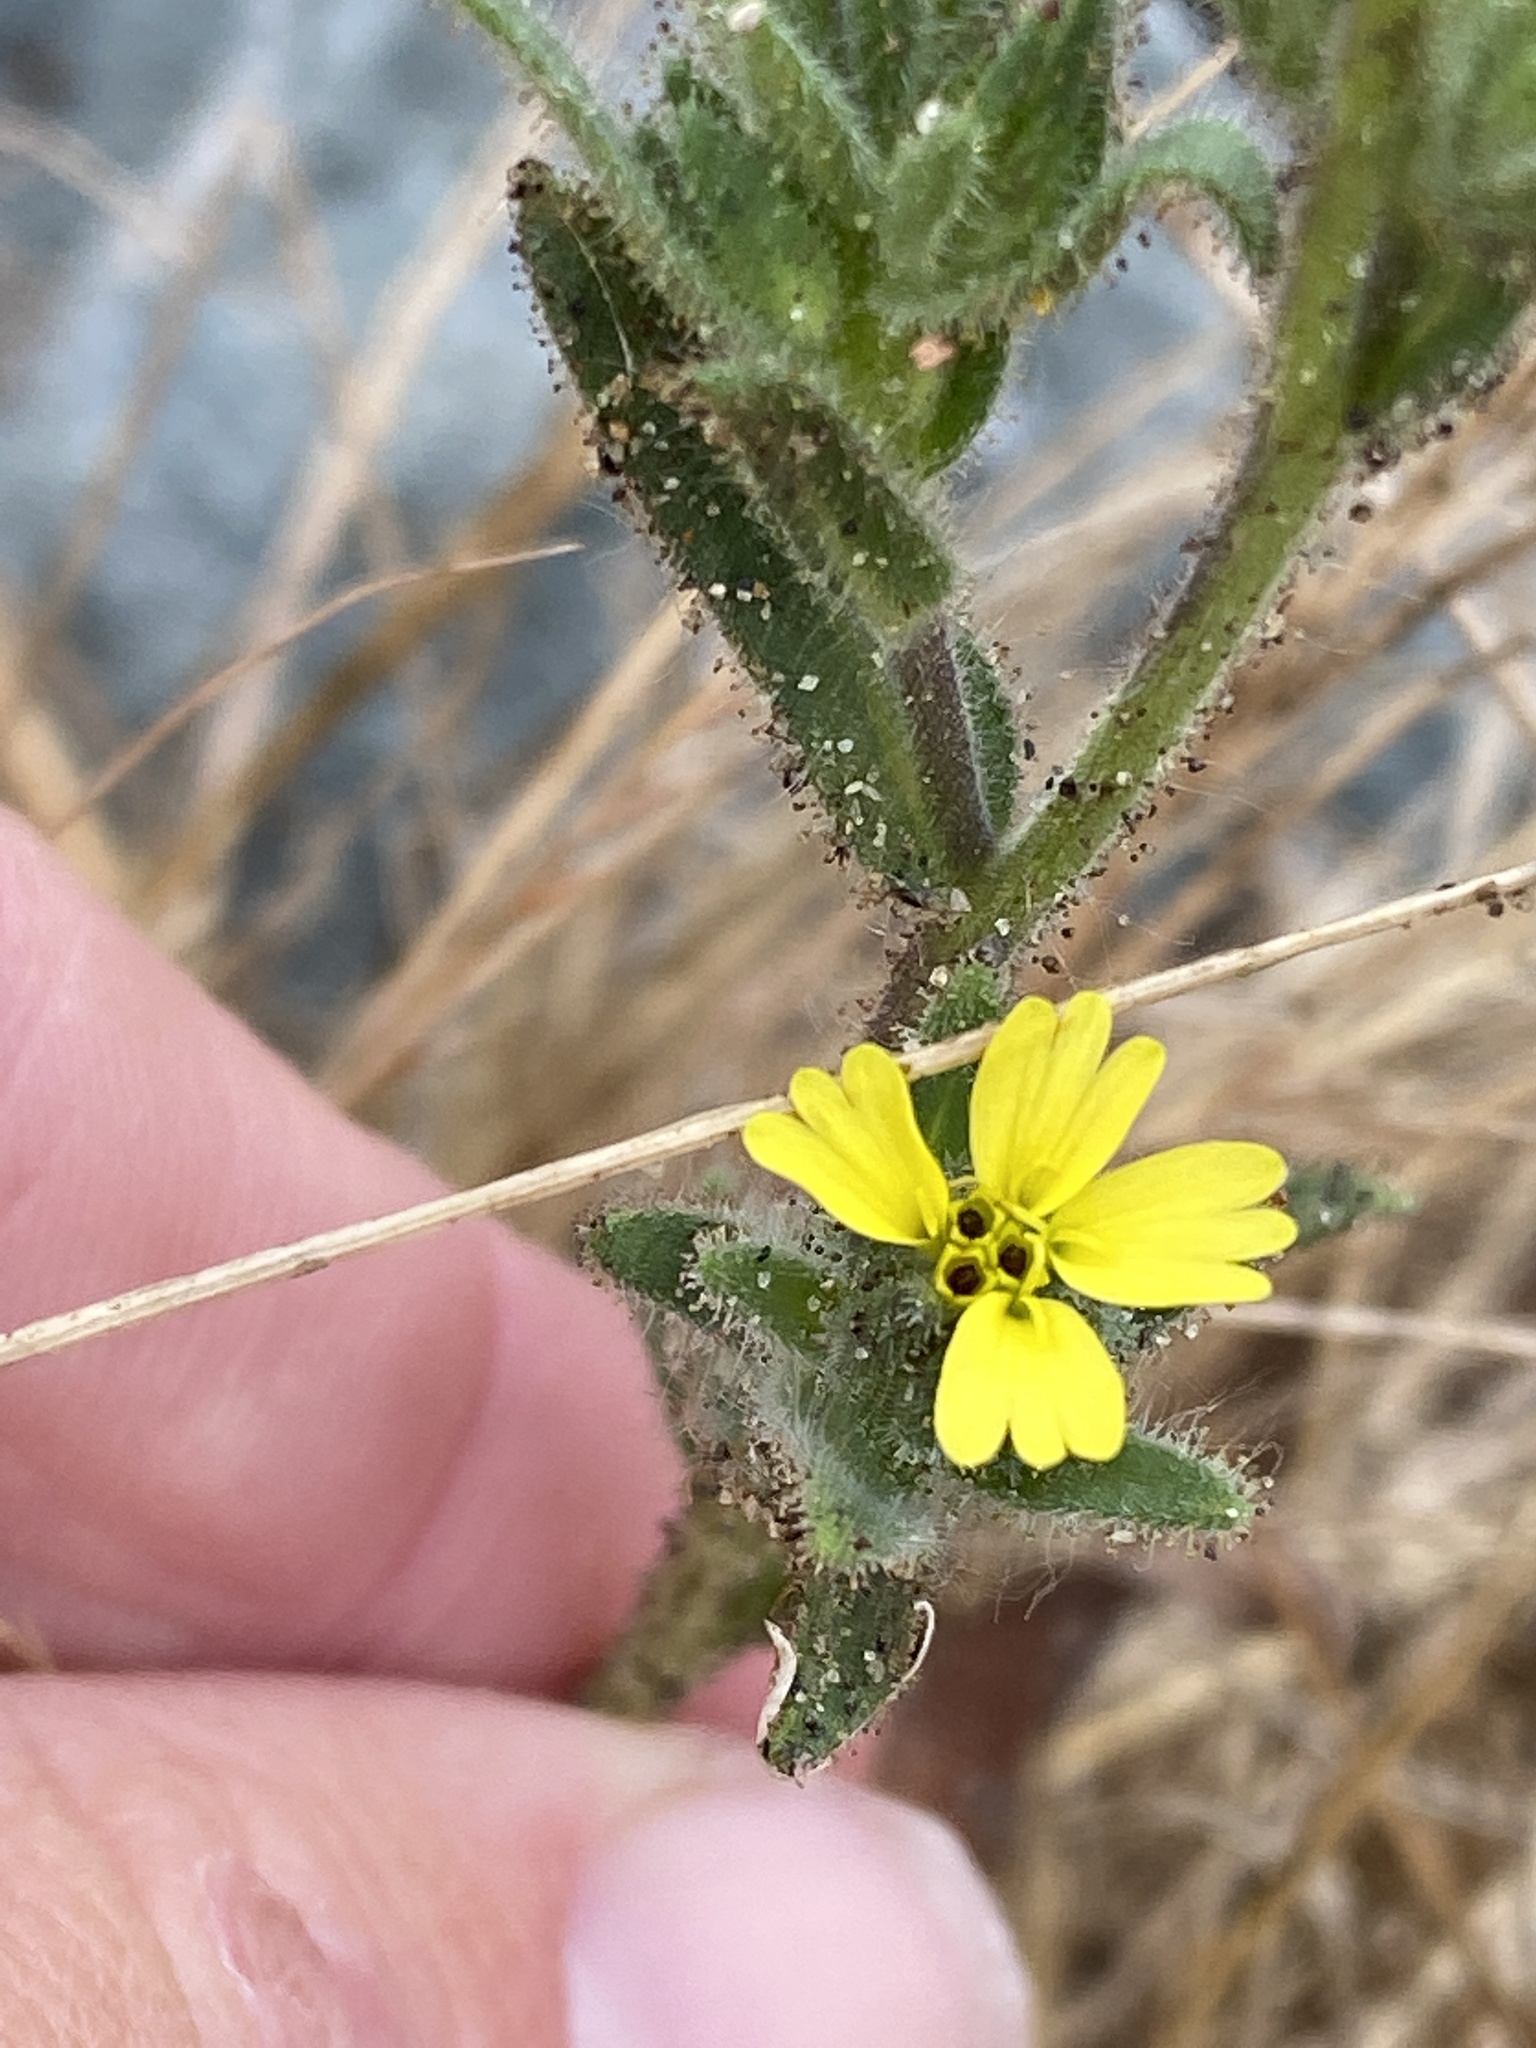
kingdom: Plantae
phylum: Tracheophyta
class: Magnoliopsida
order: Asterales
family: Asteraceae
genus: Madia
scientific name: Madia sativa
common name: Coast tarweed
